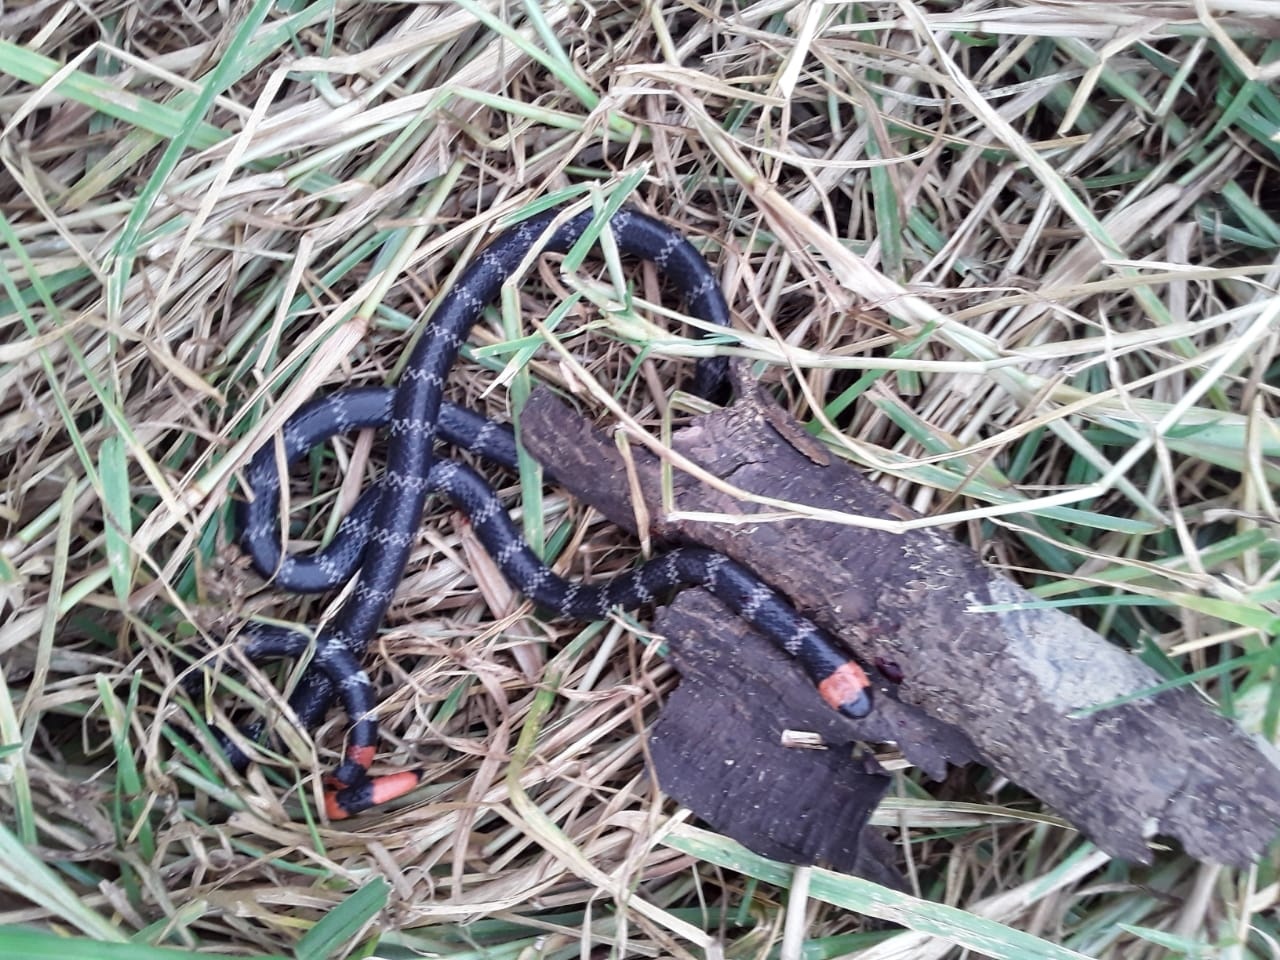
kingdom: Animalia
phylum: Chordata
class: Squamata
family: Elapidae
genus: Micrurus
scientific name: Micrurus mipartitus
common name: Redtail coral snake
